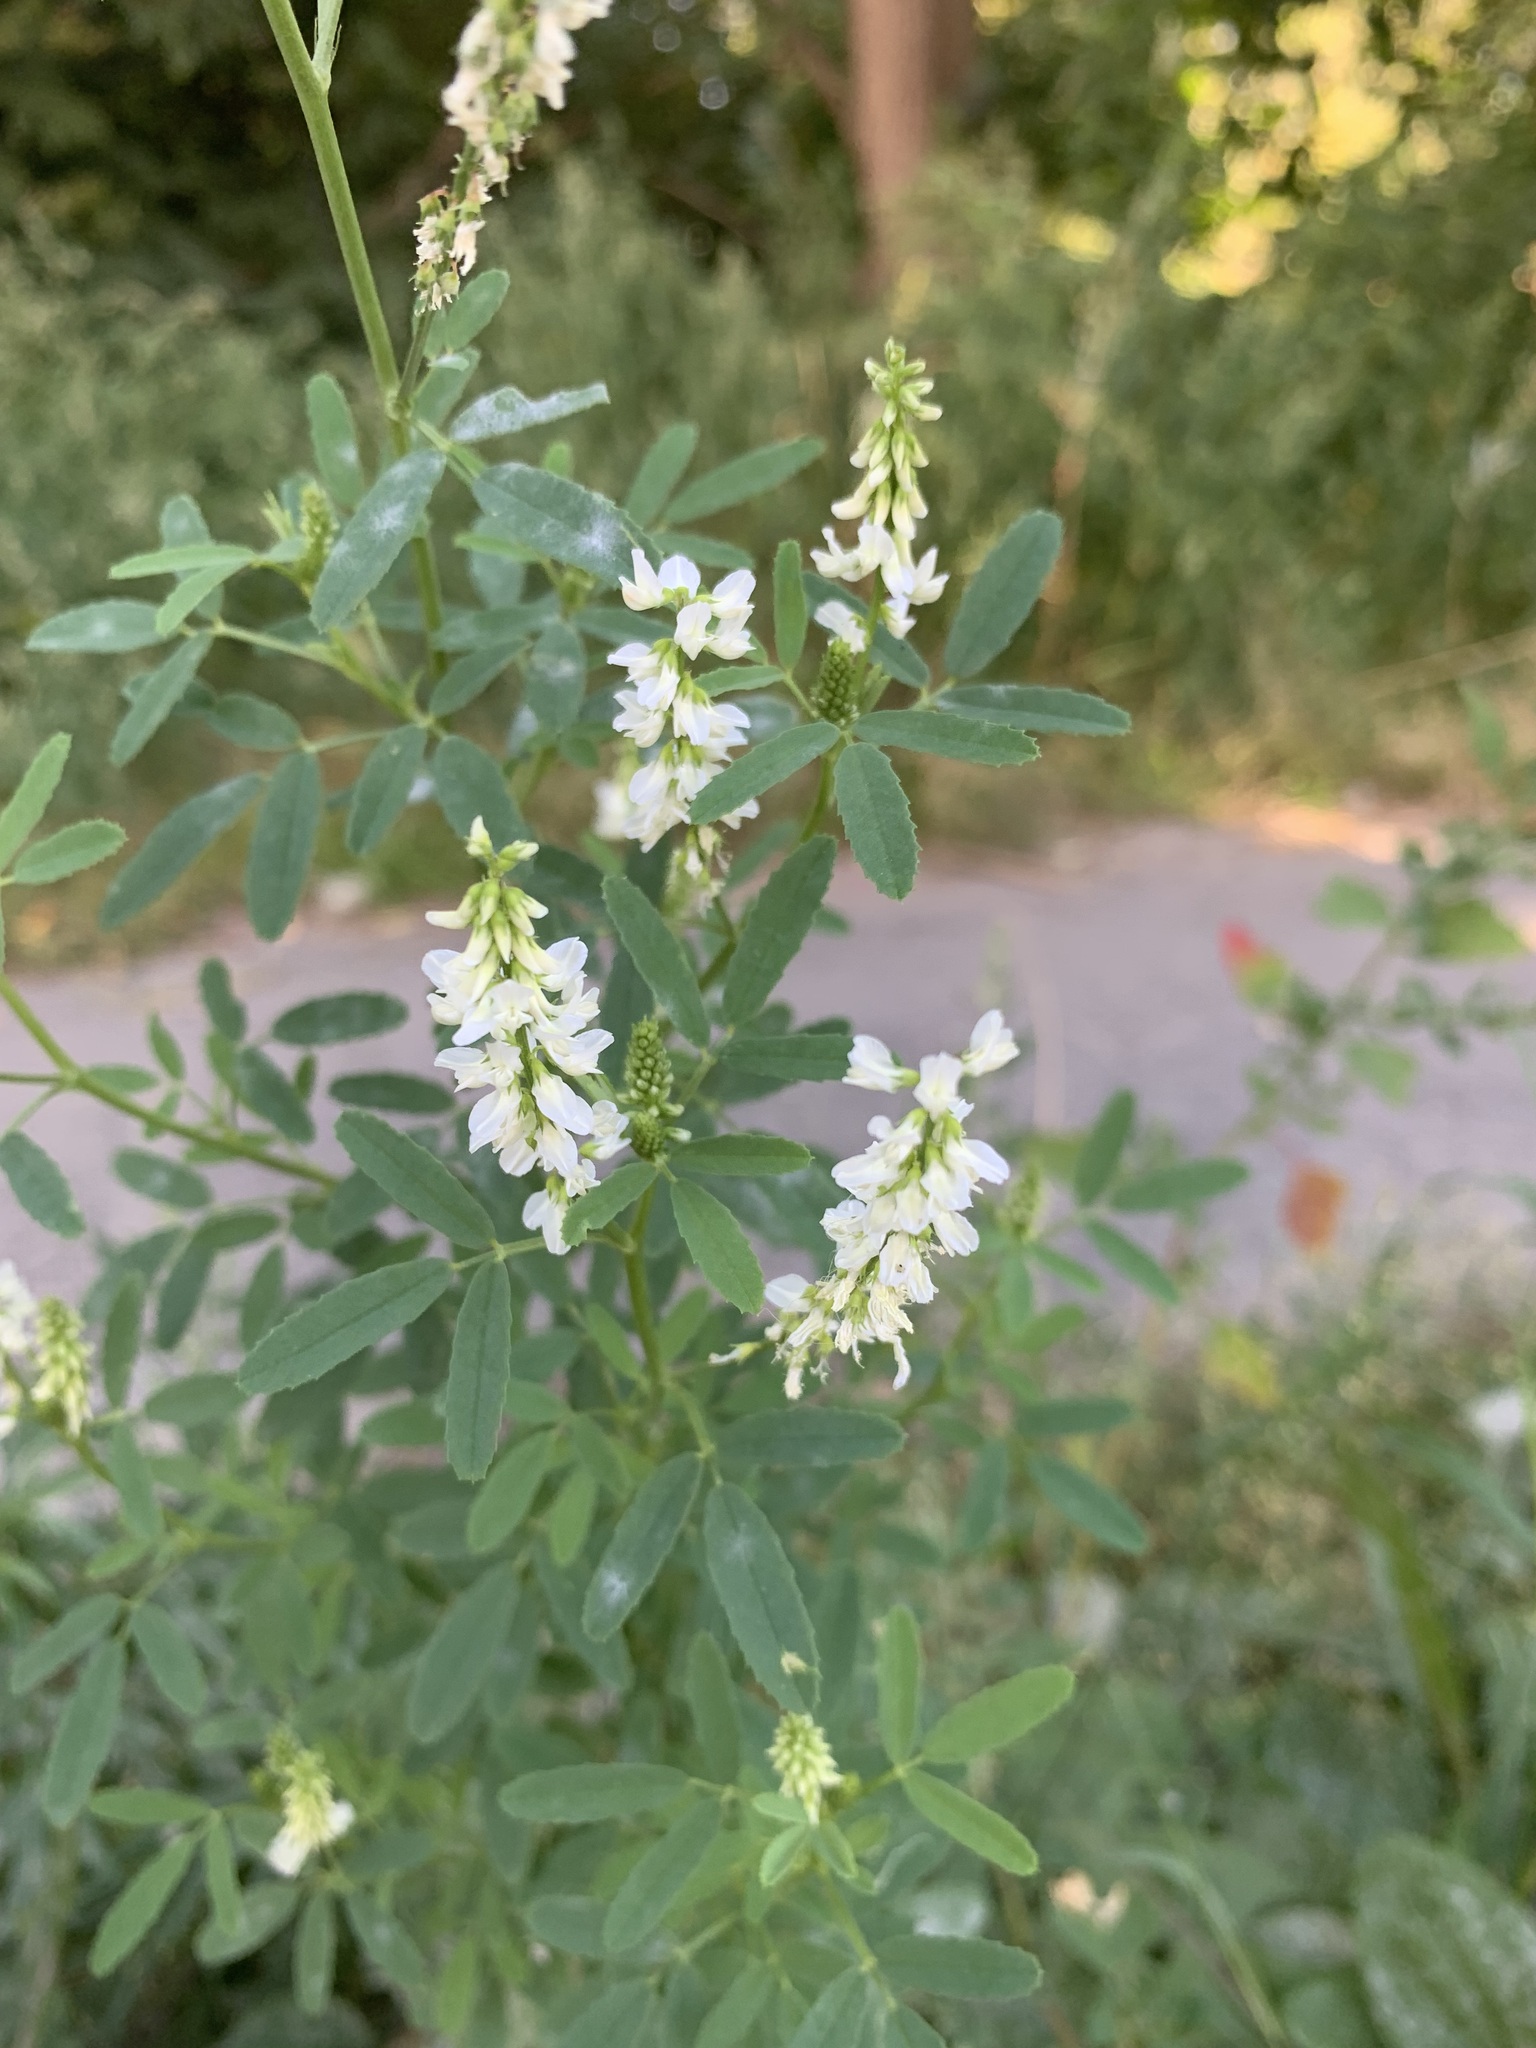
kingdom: Plantae
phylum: Tracheophyta
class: Magnoliopsida
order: Fabales
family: Fabaceae
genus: Melilotus
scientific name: Melilotus albus
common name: White melilot
